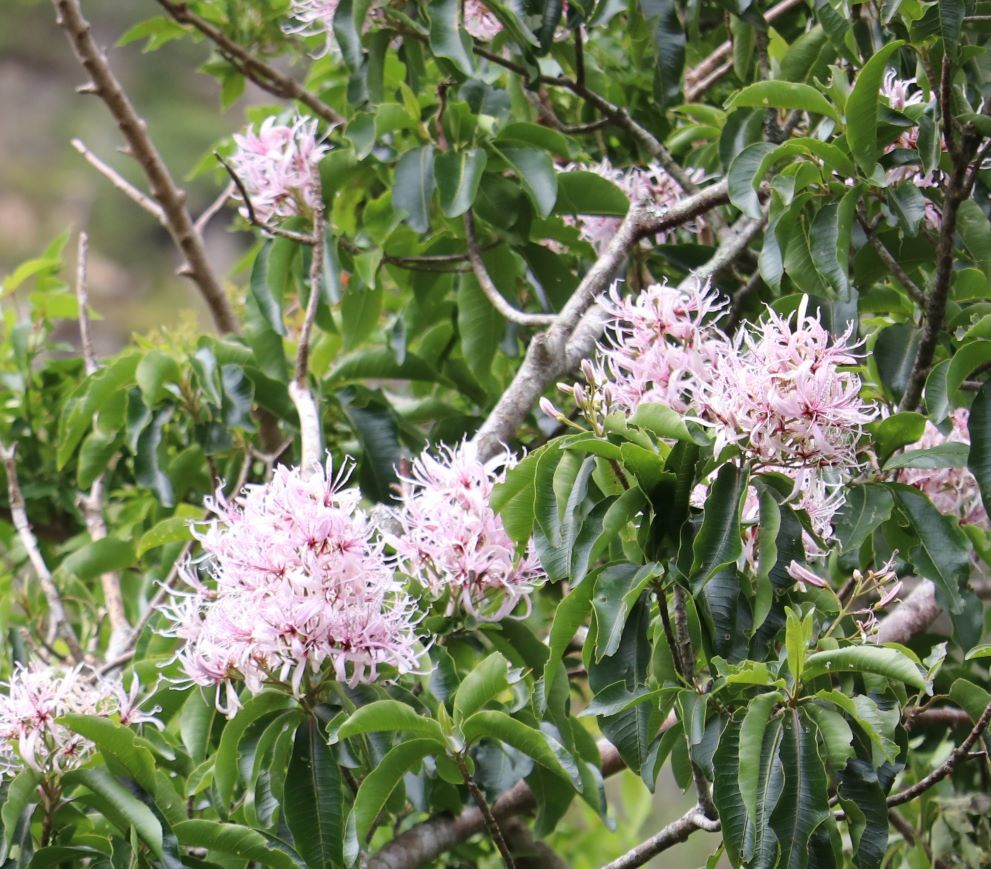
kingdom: Plantae
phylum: Tracheophyta
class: Magnoliopsida
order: Sapindales
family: Rutaceae
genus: Calodendrum
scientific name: Calodendrum capense
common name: Cape chestnut
